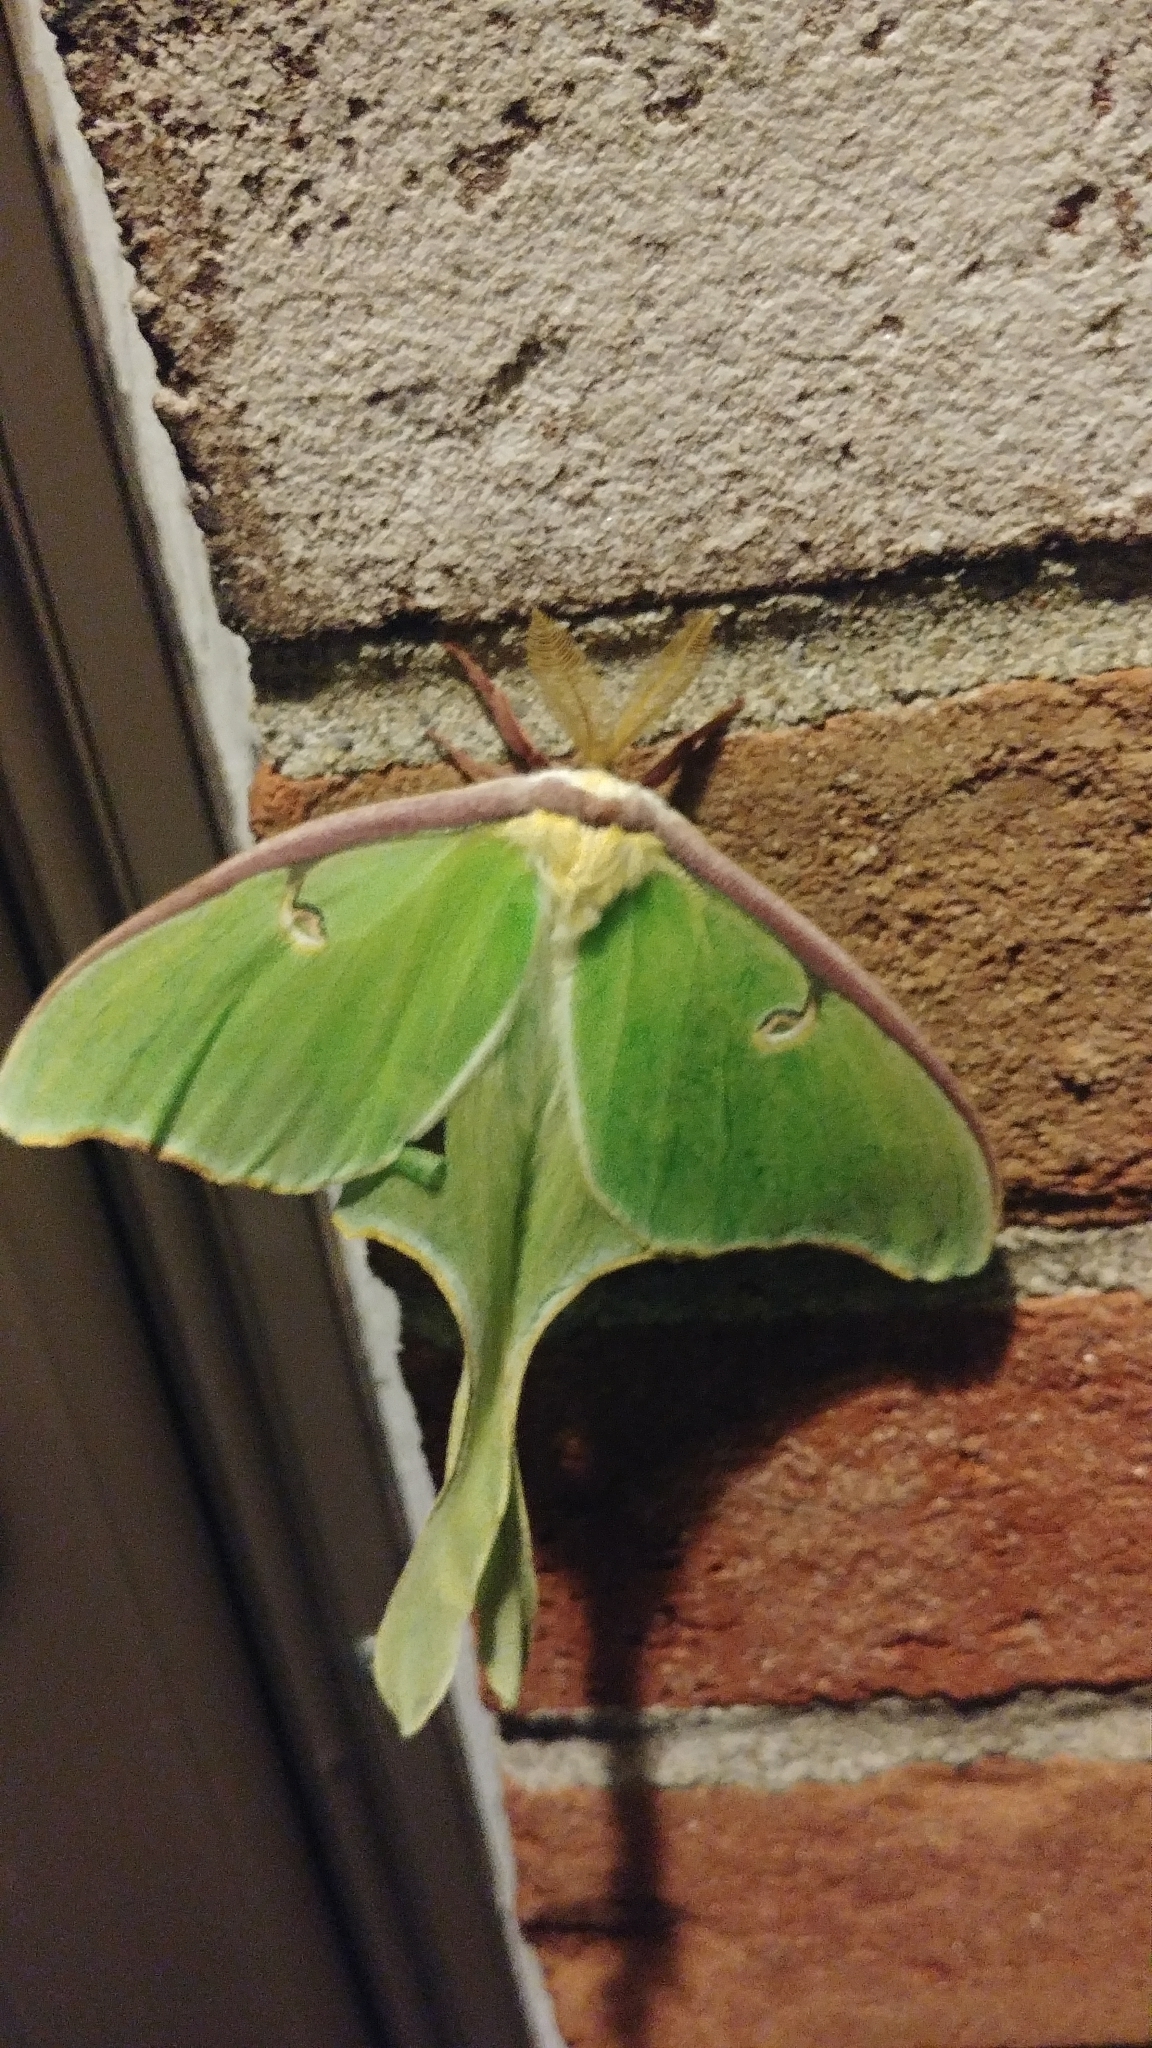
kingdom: Animalia
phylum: Arthropoda
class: Insecta
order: Lepidoptera
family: Saturniidae
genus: Actias
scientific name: Actias luna
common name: Luna moth
